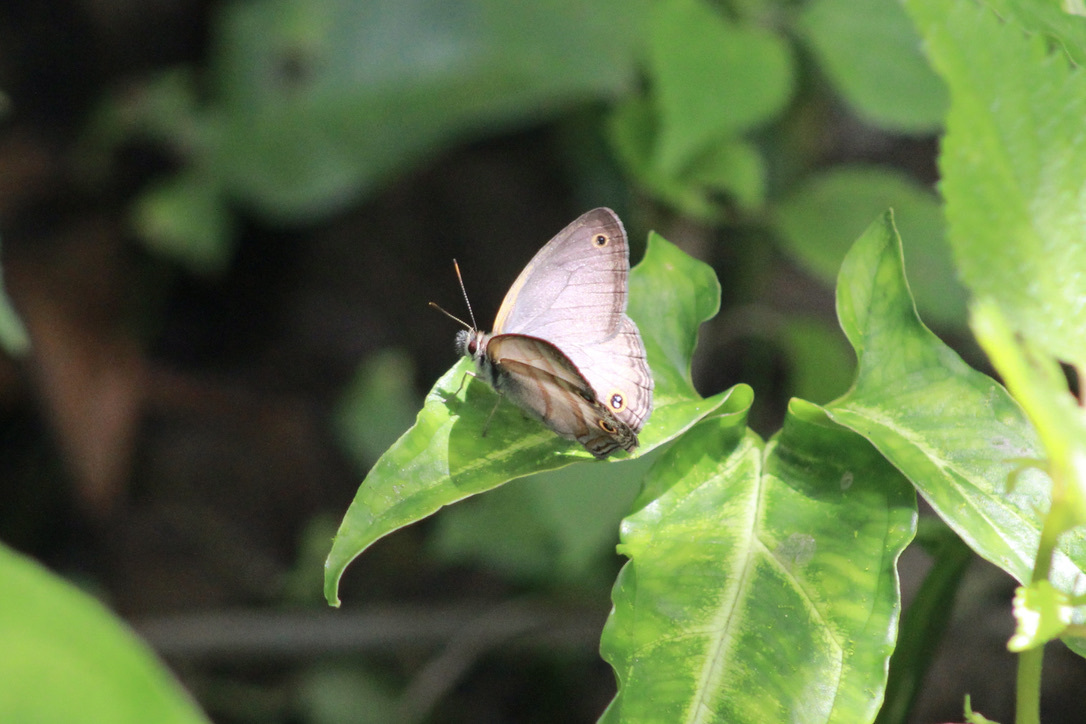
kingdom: Animalia
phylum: Arthropoda
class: Insecta
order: Lepidoptera
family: Nymphalidae
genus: Argyreuptychia
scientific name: Argyreuptychia penelope
